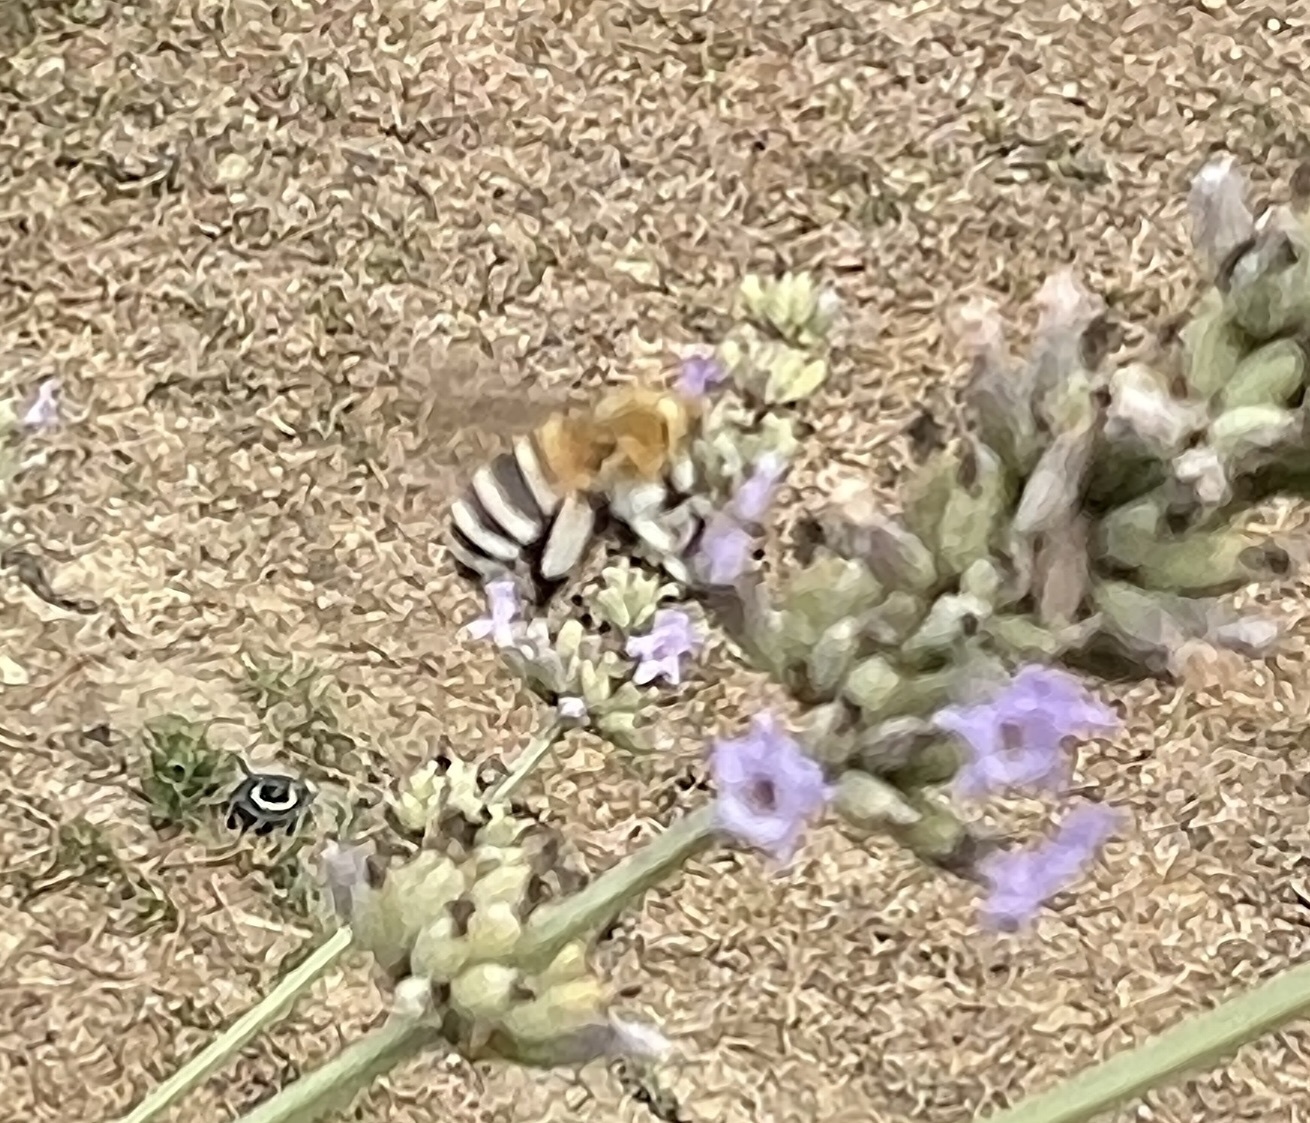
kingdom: Animalia
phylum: Arthropoda
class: Insecta
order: Hymenoptera
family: Apidae
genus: Amegilla
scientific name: Amegilla quadrifasciata
